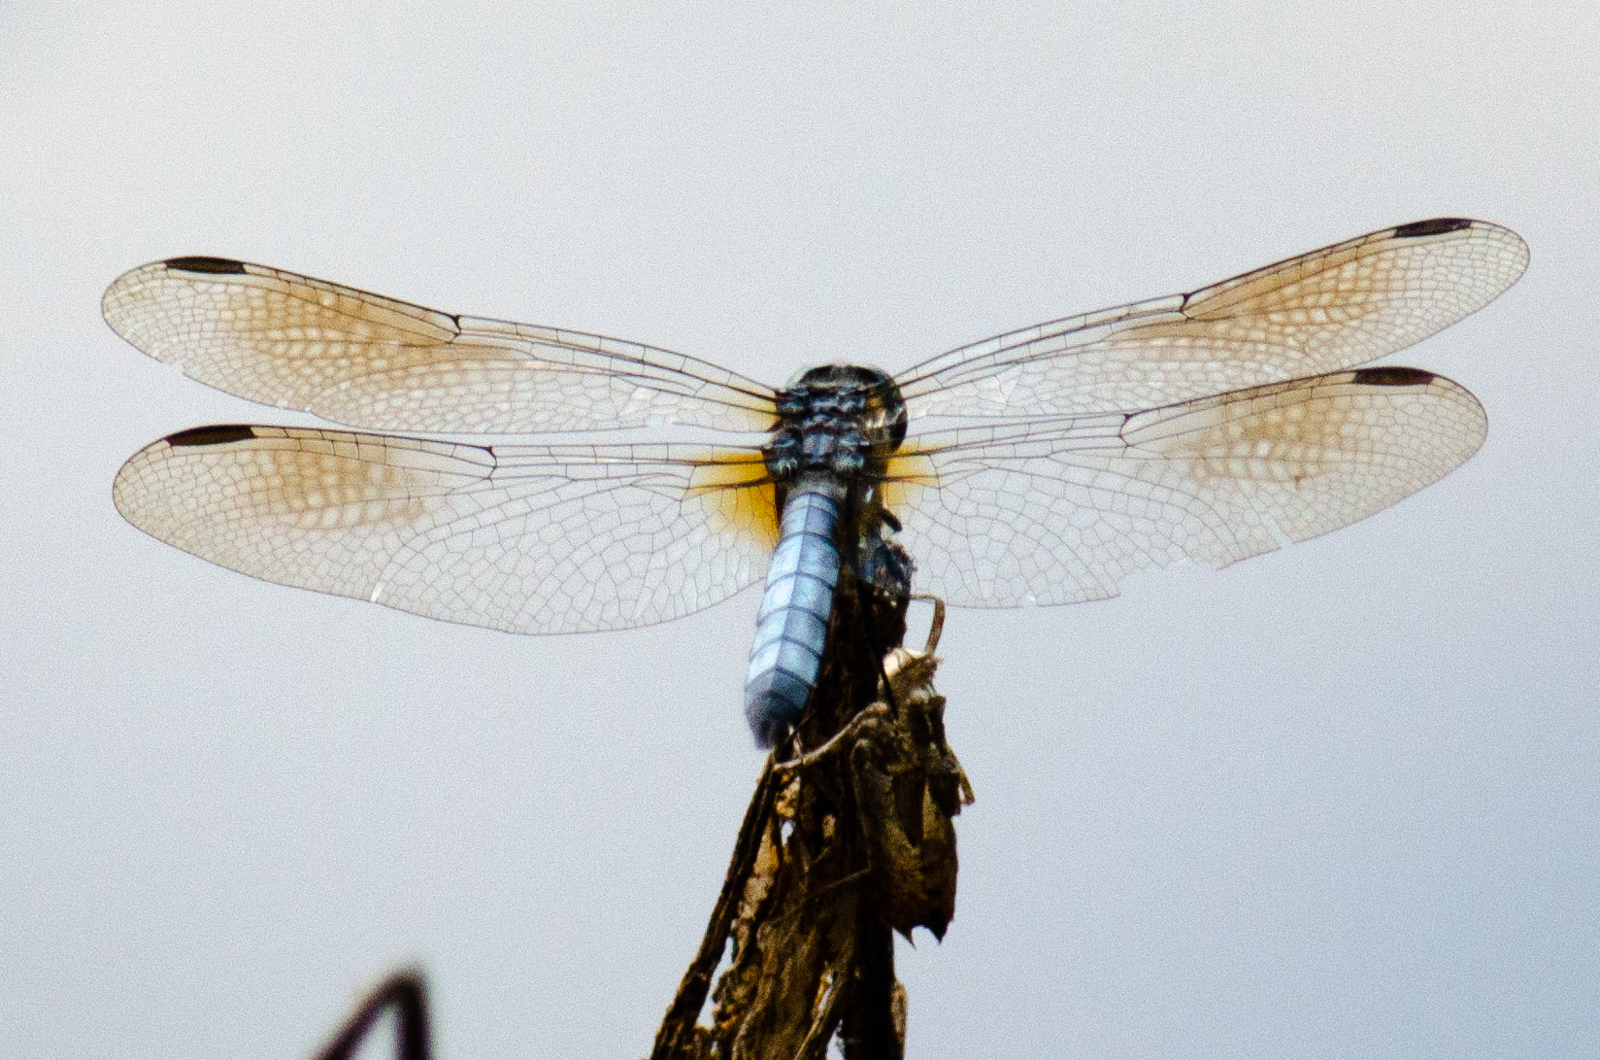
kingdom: Animalia
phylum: Arthropoda
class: Insecta
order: Odonata
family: Libellulidae
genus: Pachydiplax
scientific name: Pachydiplax longipennis
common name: Blue dasher
